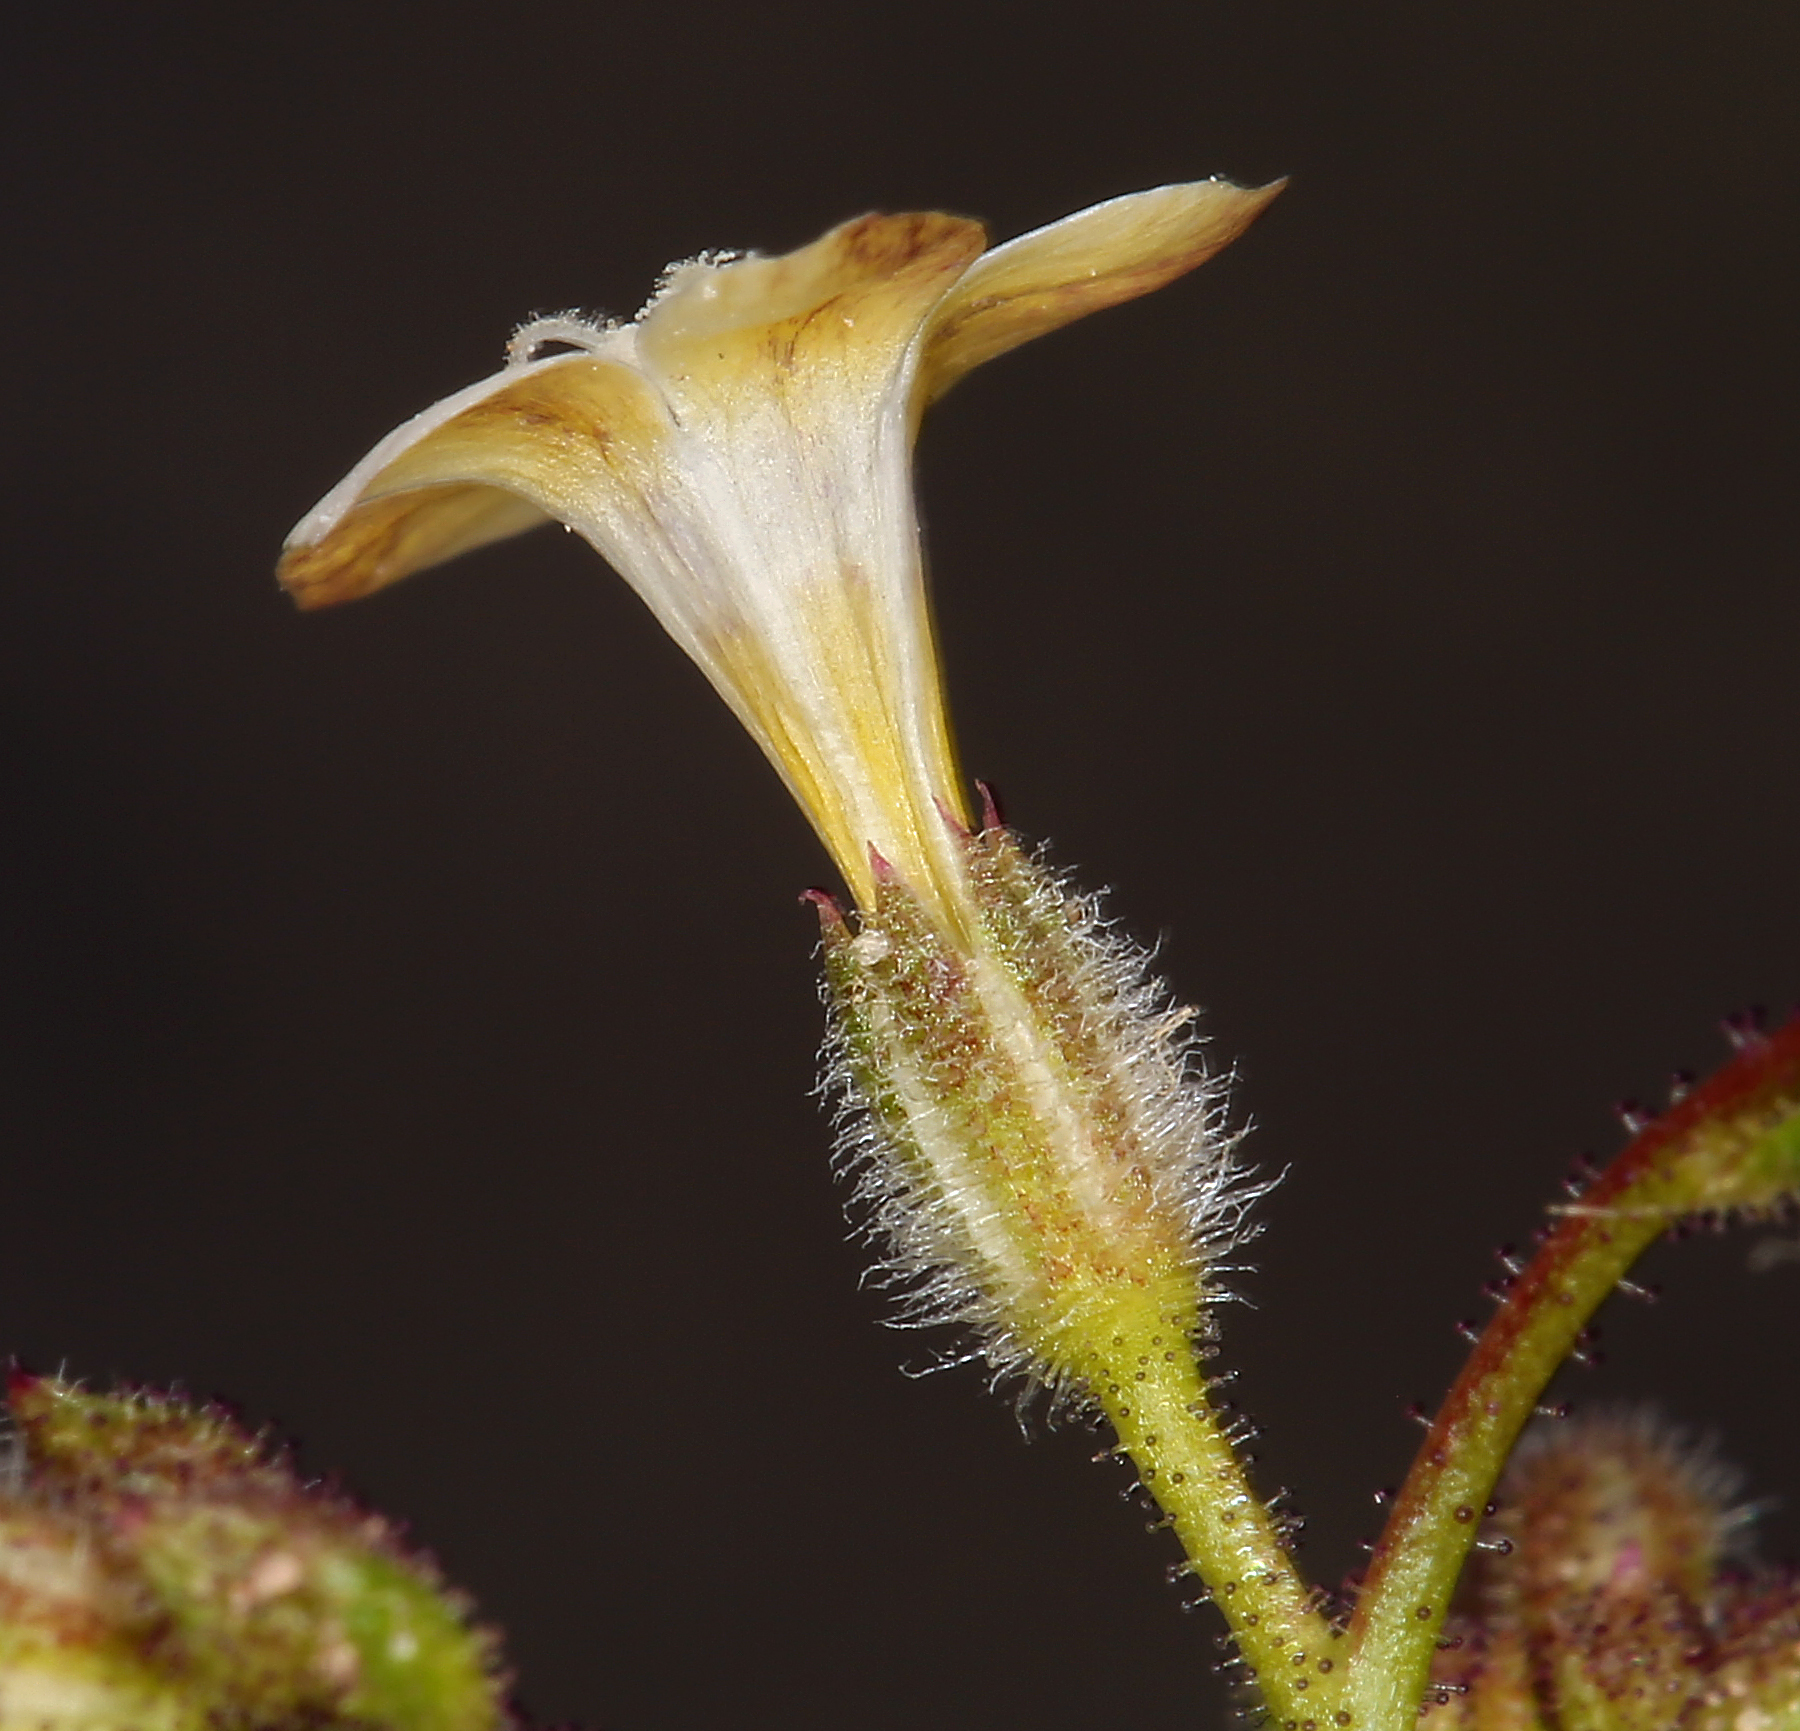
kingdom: Plantae
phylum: Tracheophyta
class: Magnoliopsida
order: Ericales
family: Polemoniaceae
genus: Gilia
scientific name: Gilia stellata
